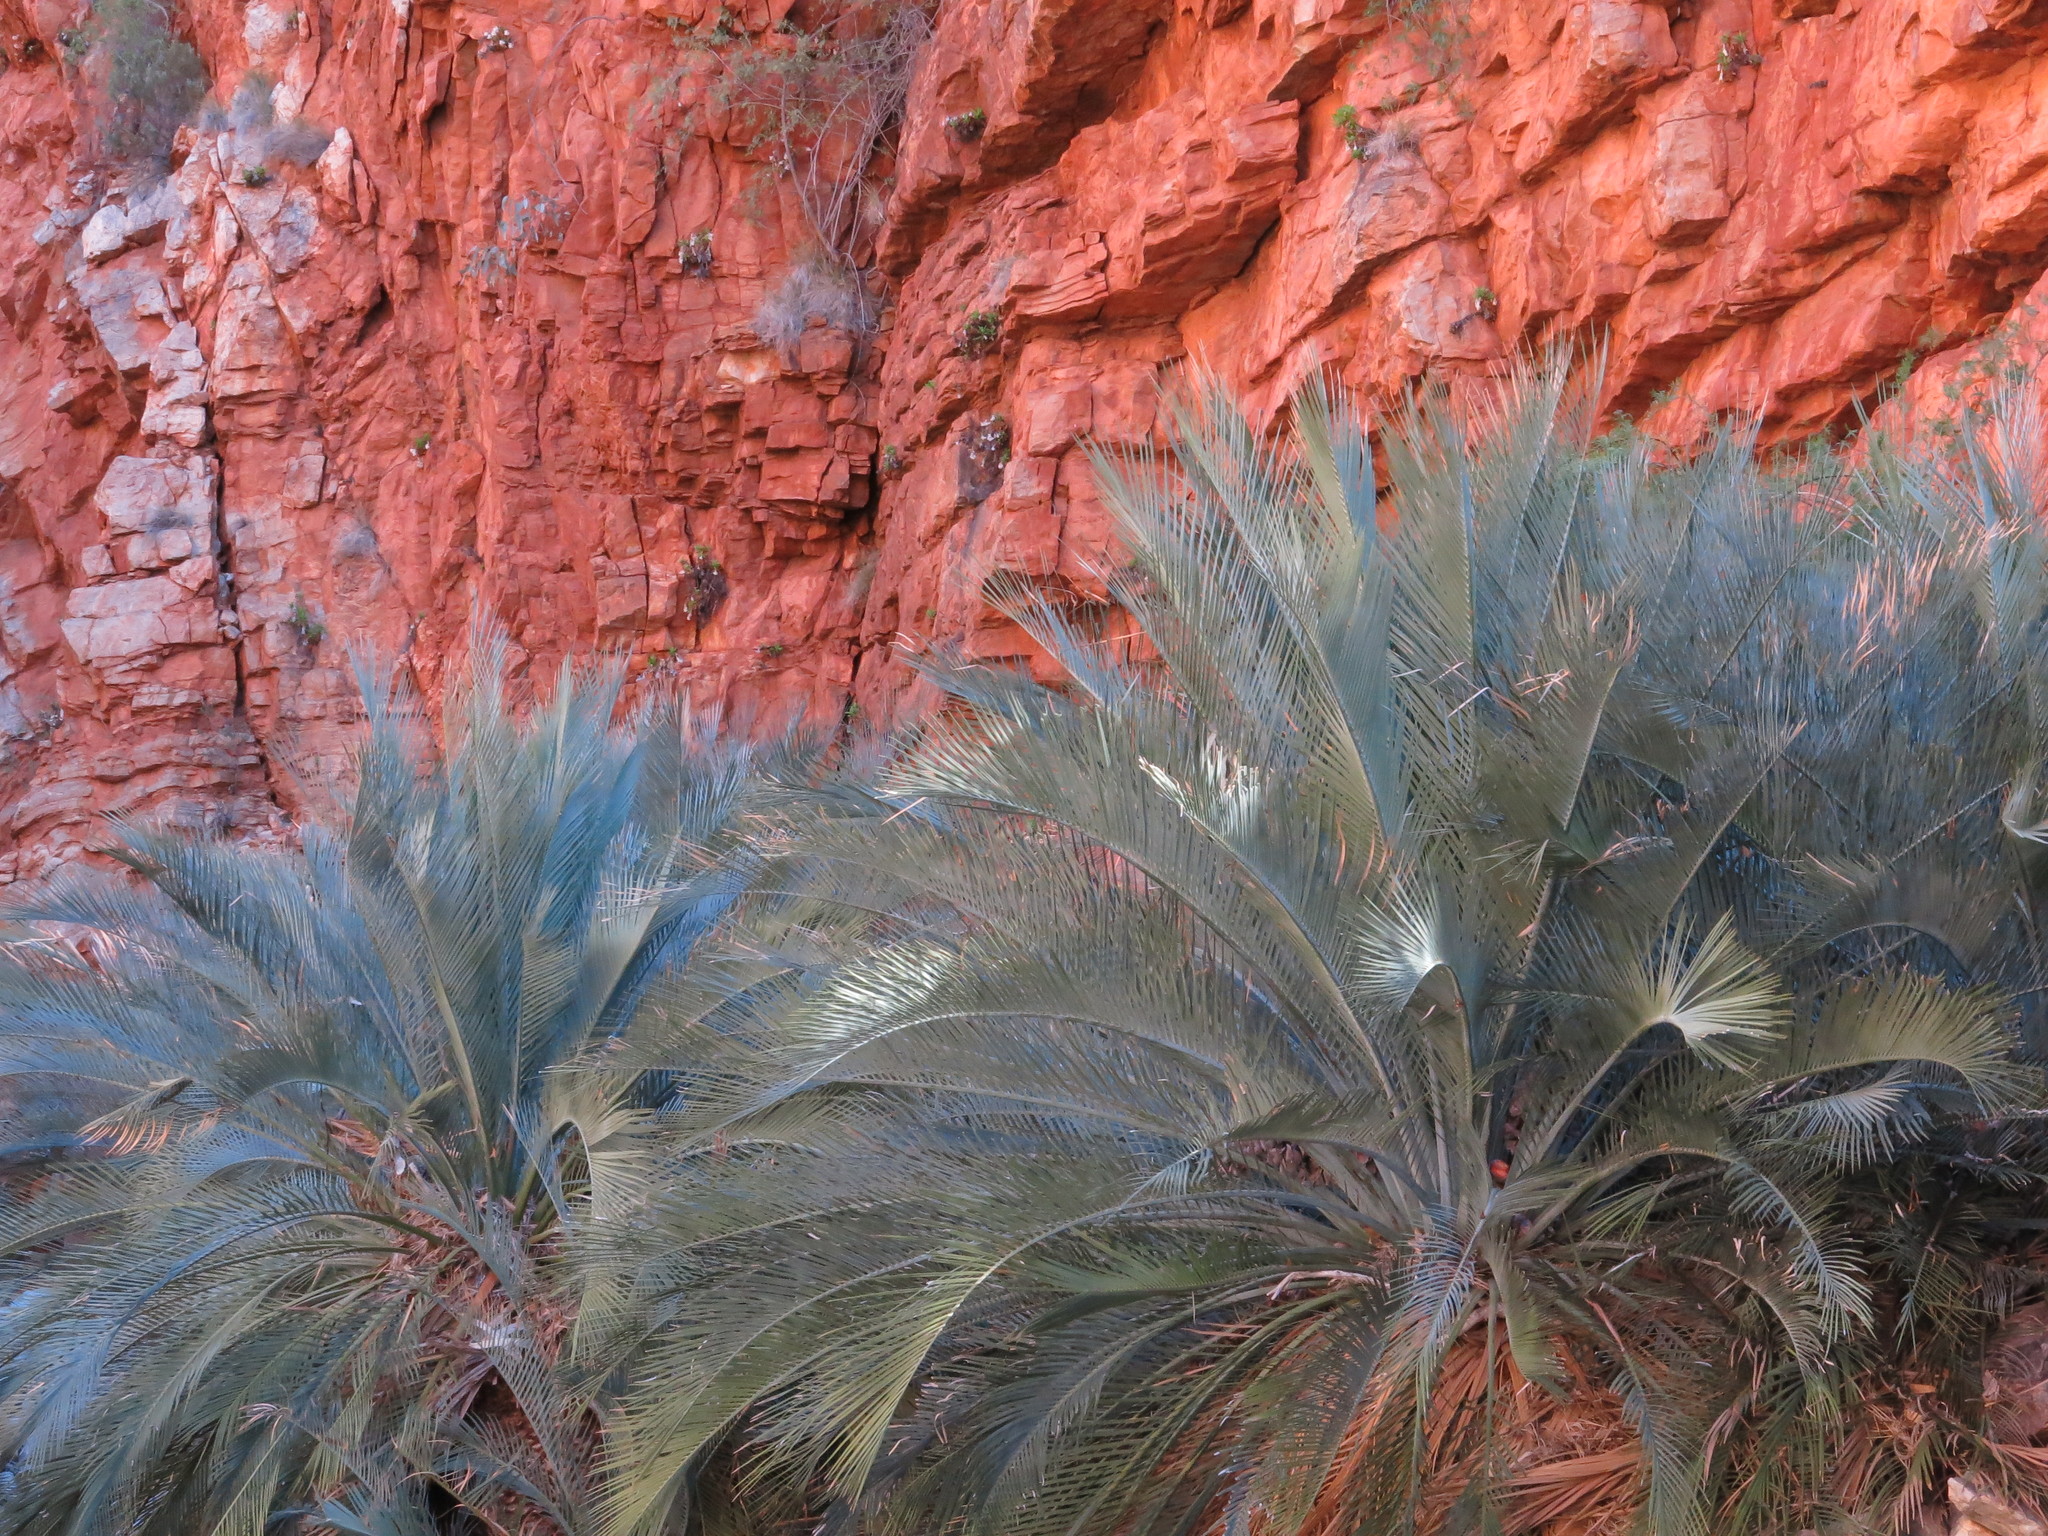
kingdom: Plantae
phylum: Tracheophyta
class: Cycadopsida
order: Cycadales
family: Zamiaceae
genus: Macrozamia
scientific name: Macrozamia macdonnellii
